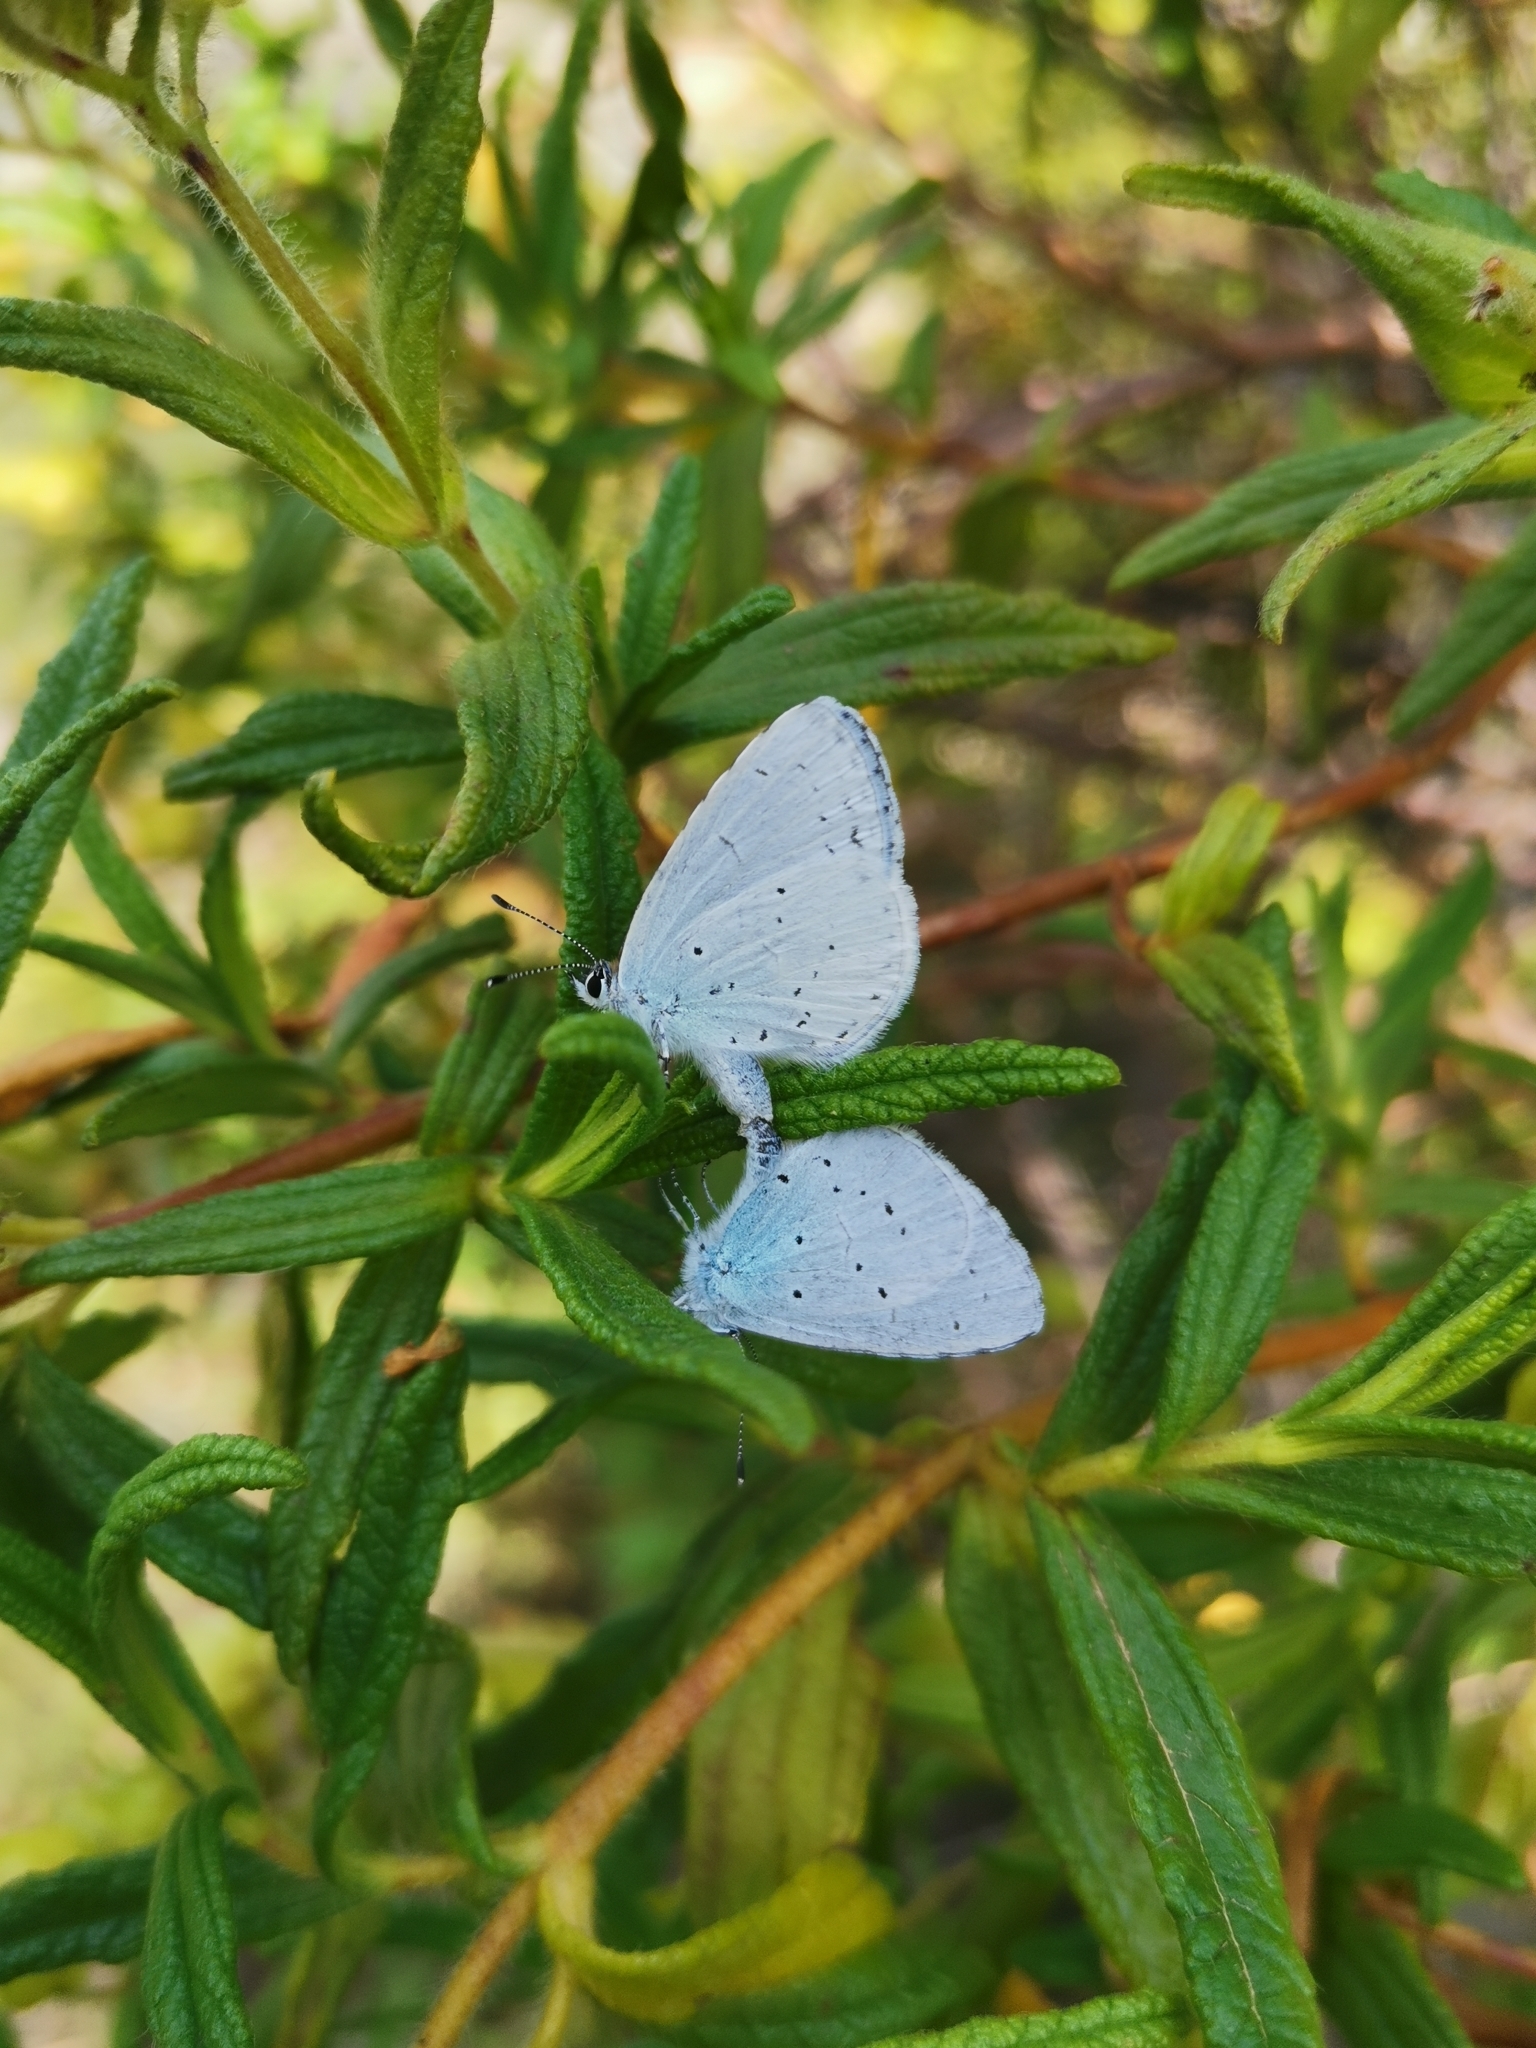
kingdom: Animalia
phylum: Arthropoda
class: Insecta
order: Lepidoptera
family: Lycaenidae
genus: Celastrina
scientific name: Celastrina argiolus
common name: Holly blue
